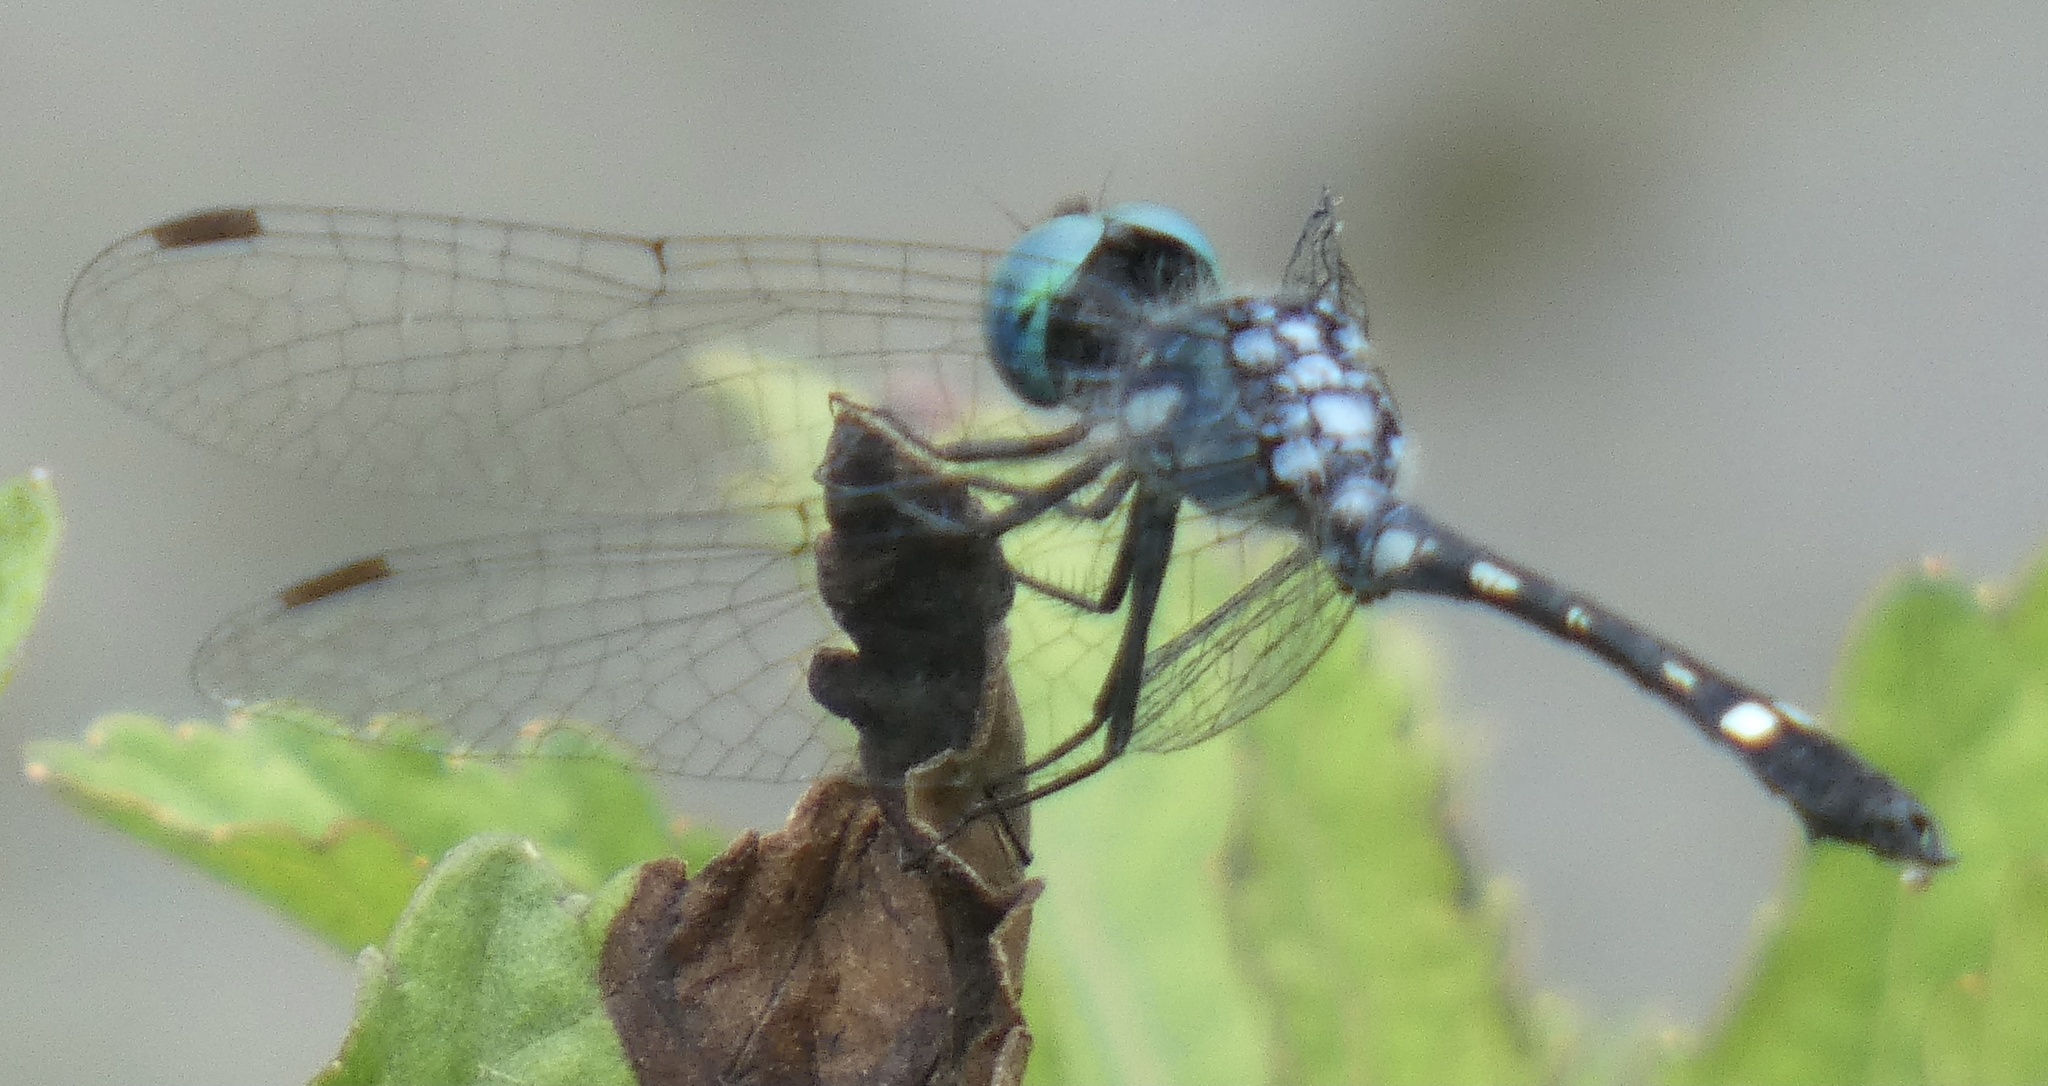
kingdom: Animalia
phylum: Arthropoda
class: Insecta
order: Odonata
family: Libellulidae
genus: Nephepeltia
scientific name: Nephepeltia phryne
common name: Spine-bellied dryad
